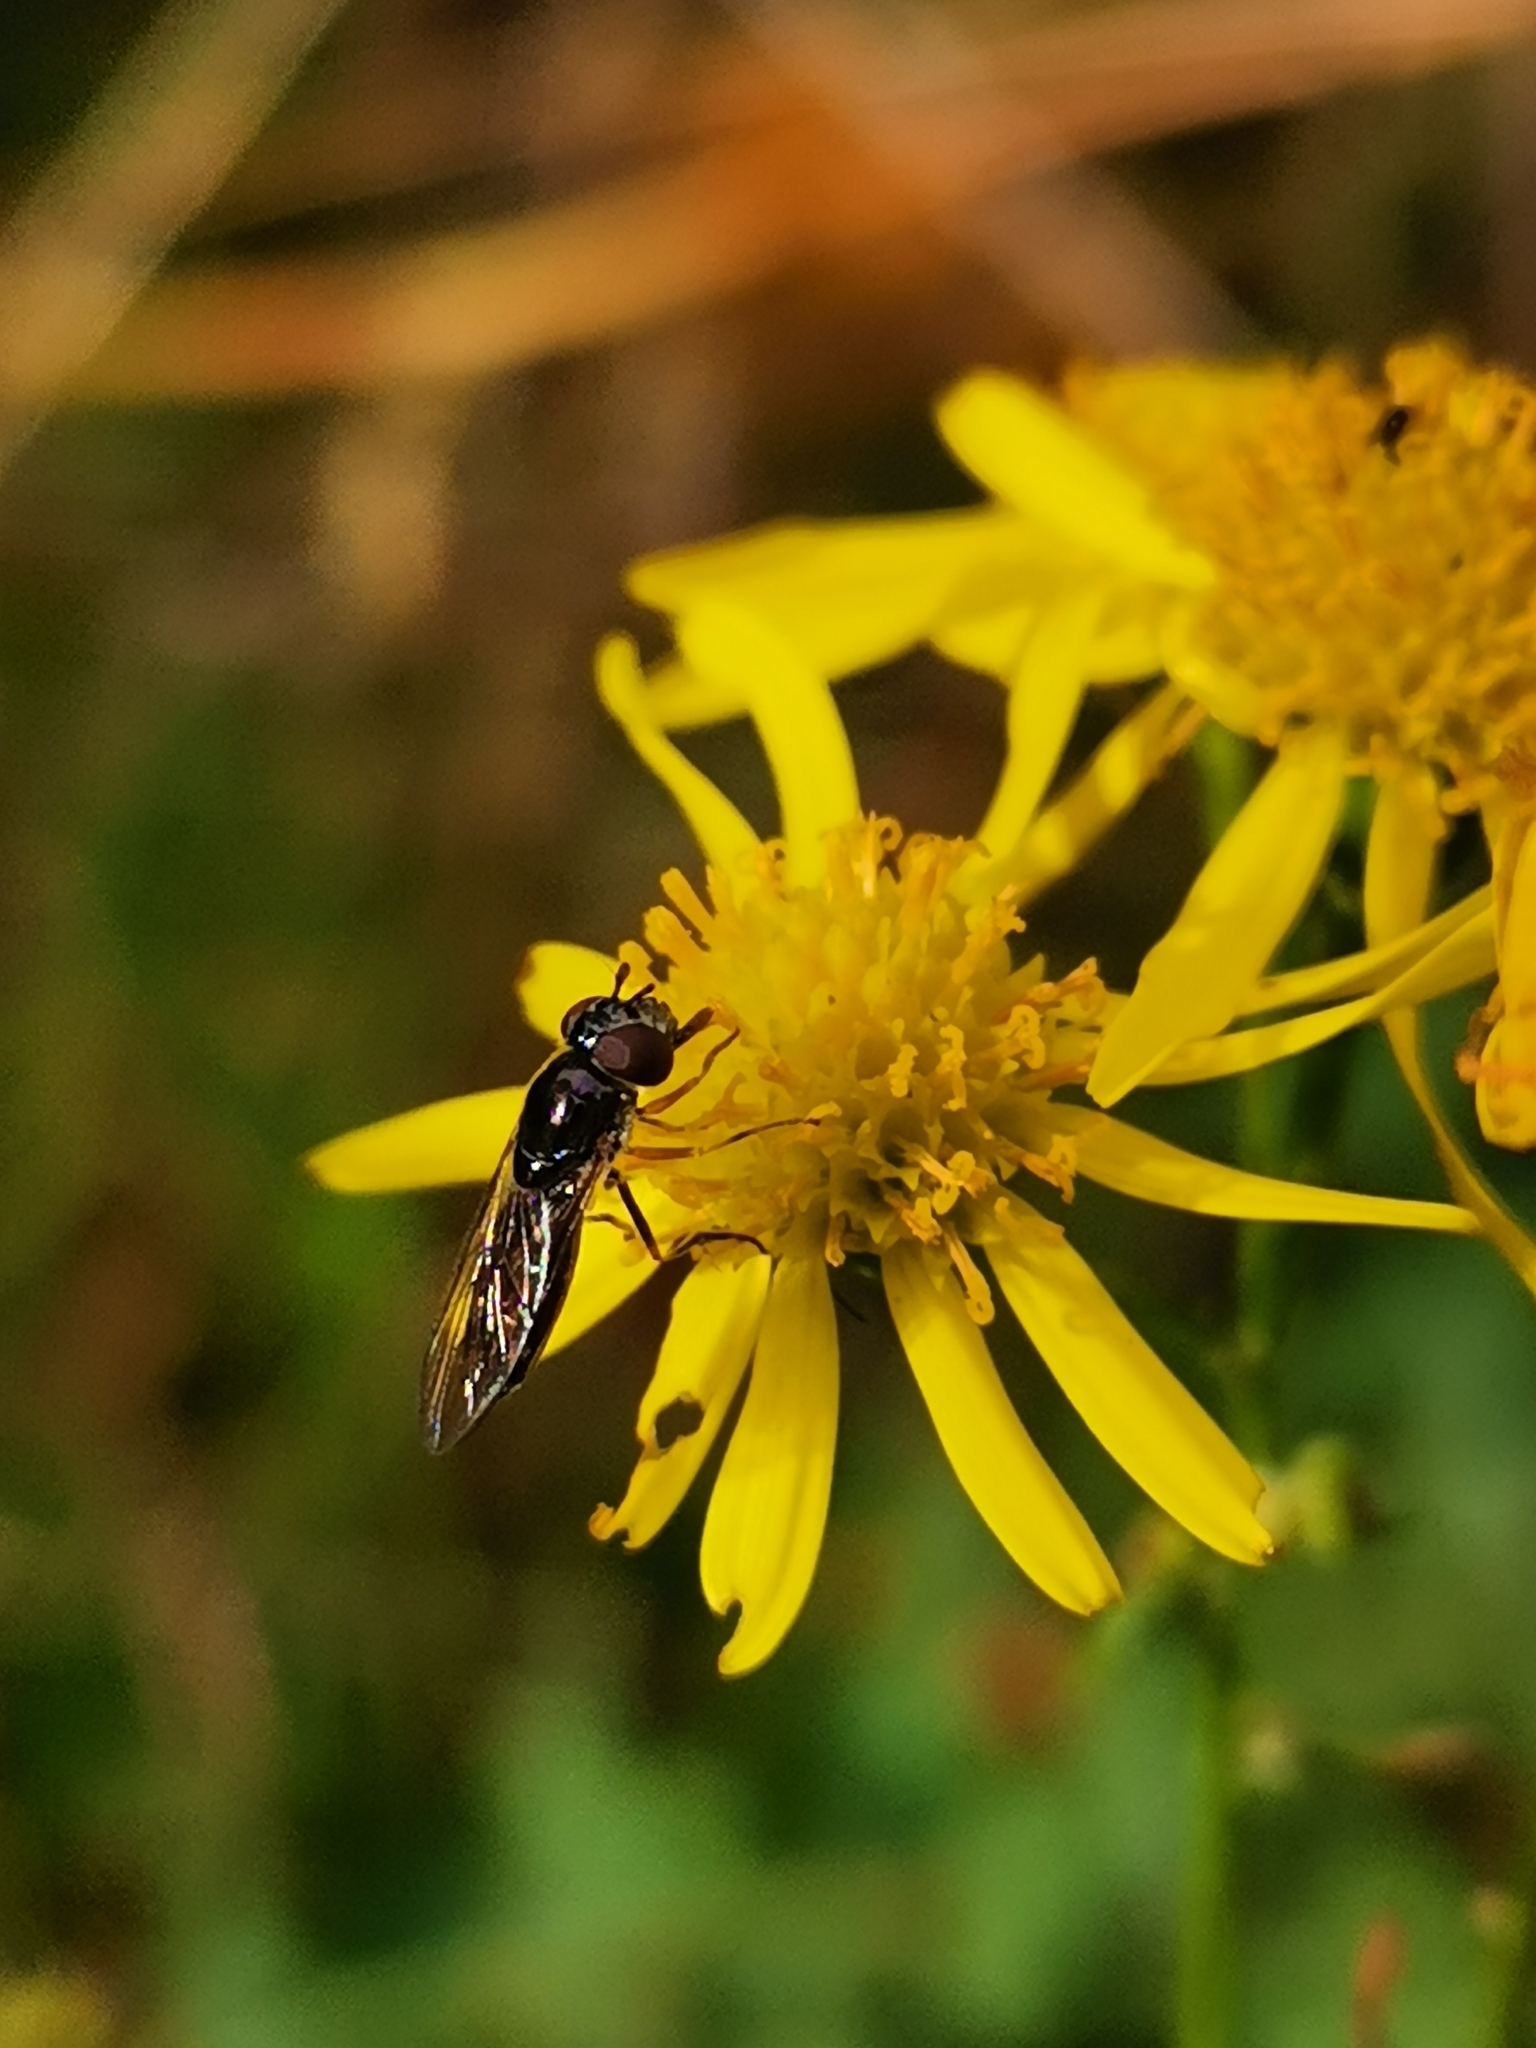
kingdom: Animalia
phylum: Arthropoda
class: Insecta
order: Diptera
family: Syrphidae
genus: Platycheirus
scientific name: Platycheirus albimanus
